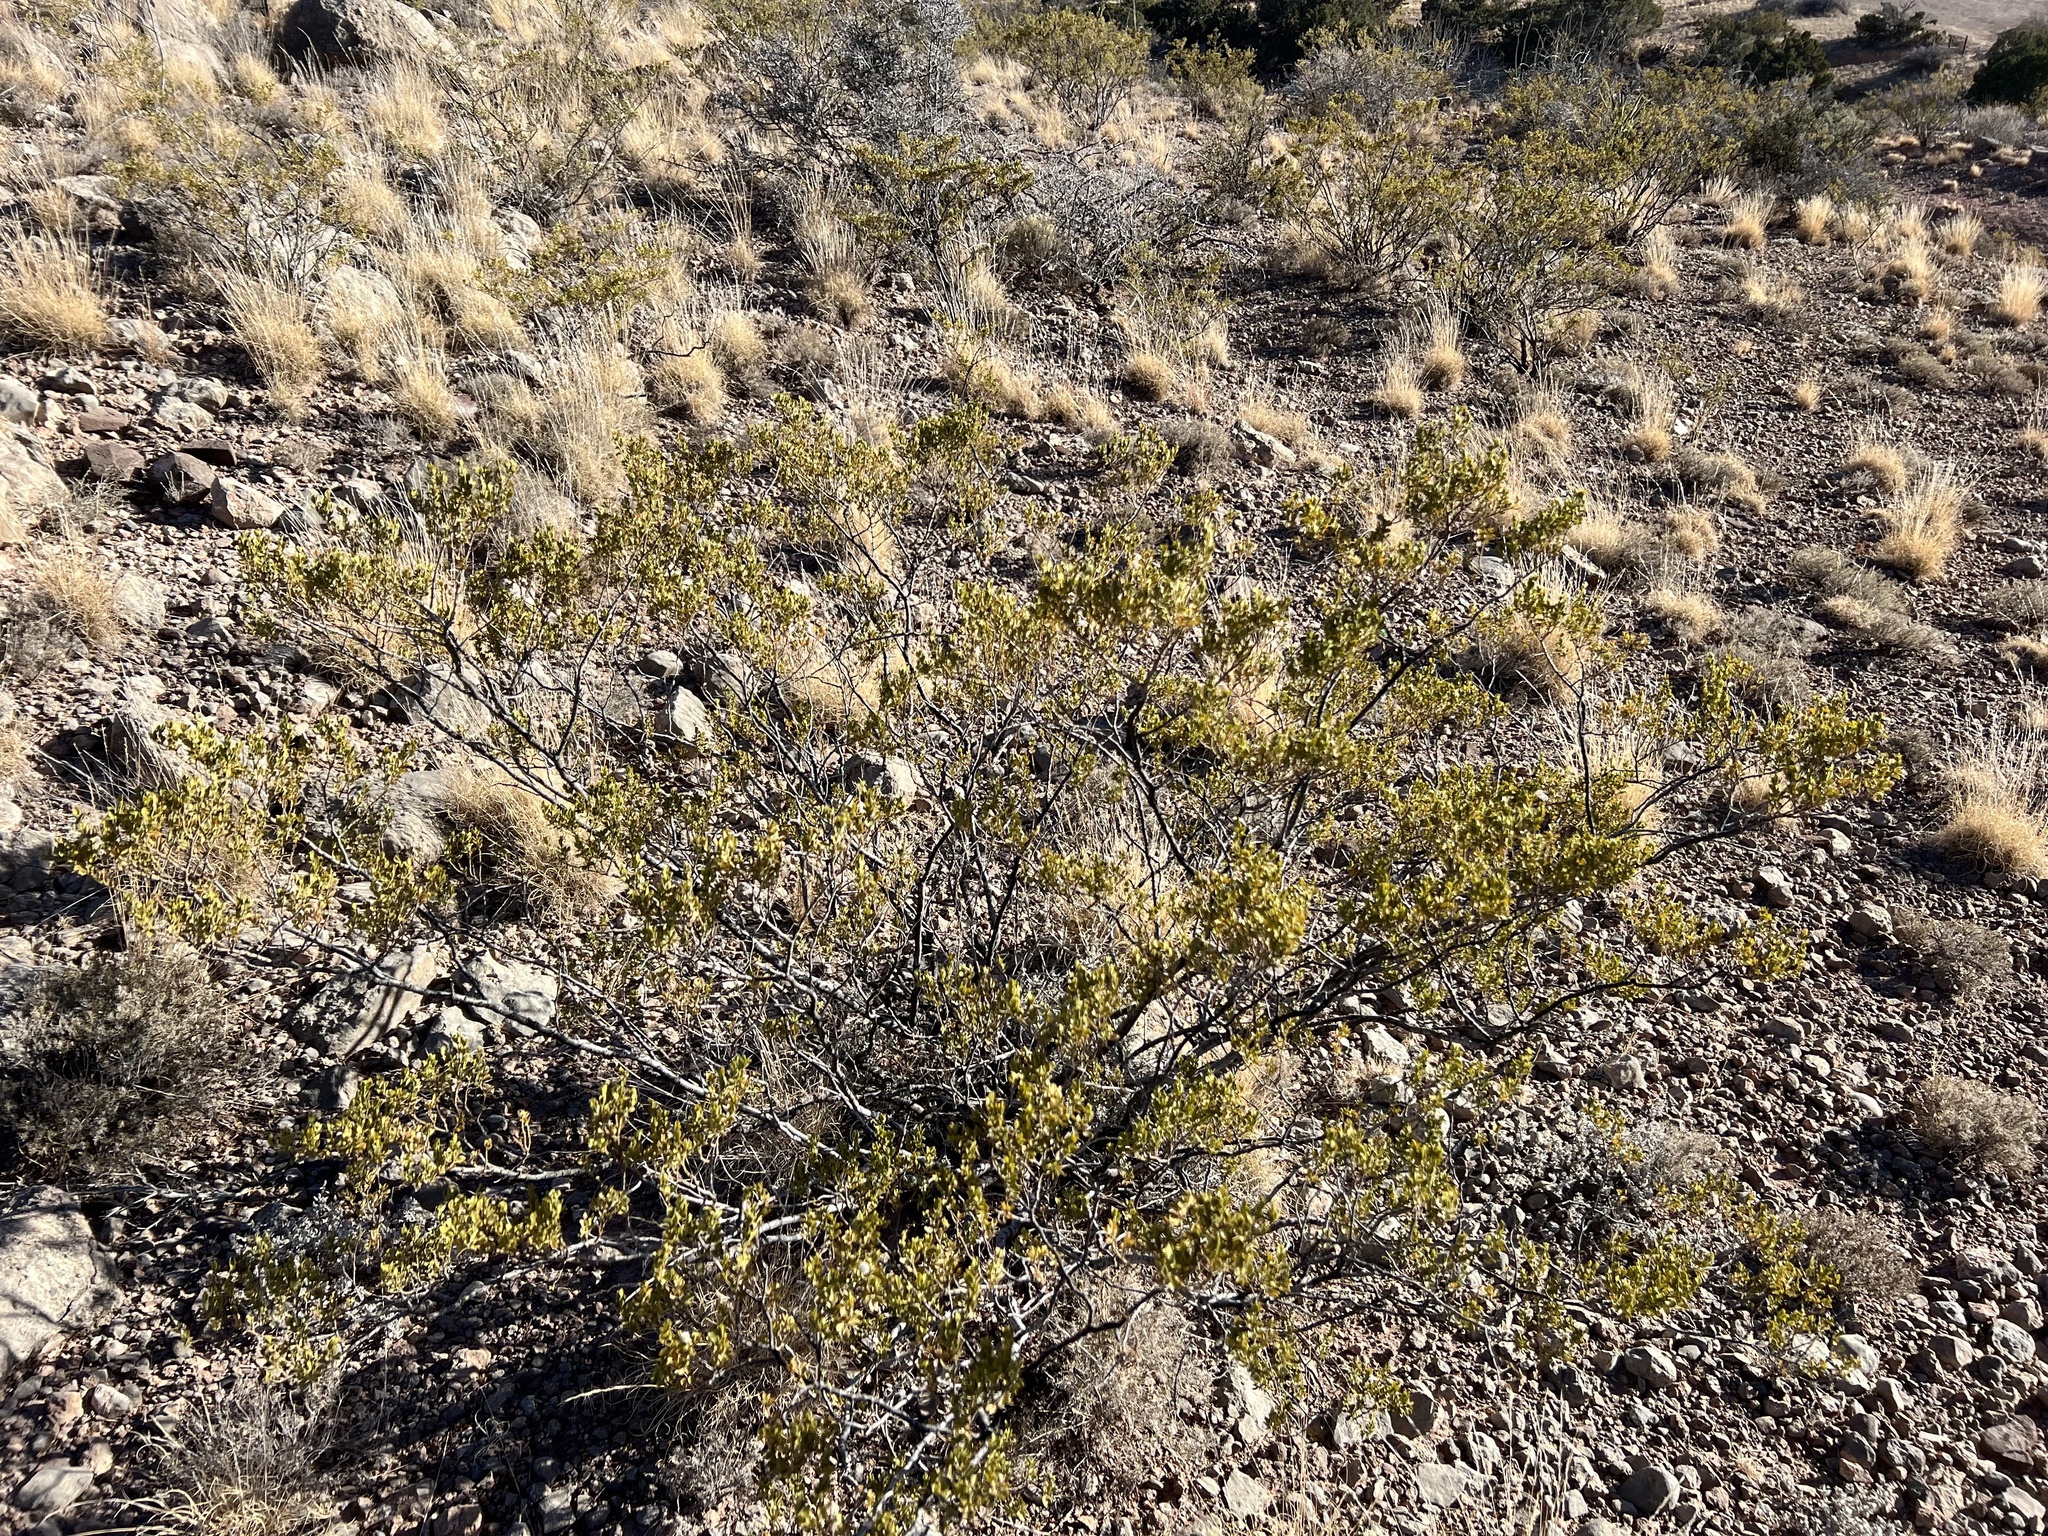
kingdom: Plantae
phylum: Tracheophyta
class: Magnoliopsida
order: Zygophyllales
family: Zygophyllaceae
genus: Larrea
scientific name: Larrea tridentata
